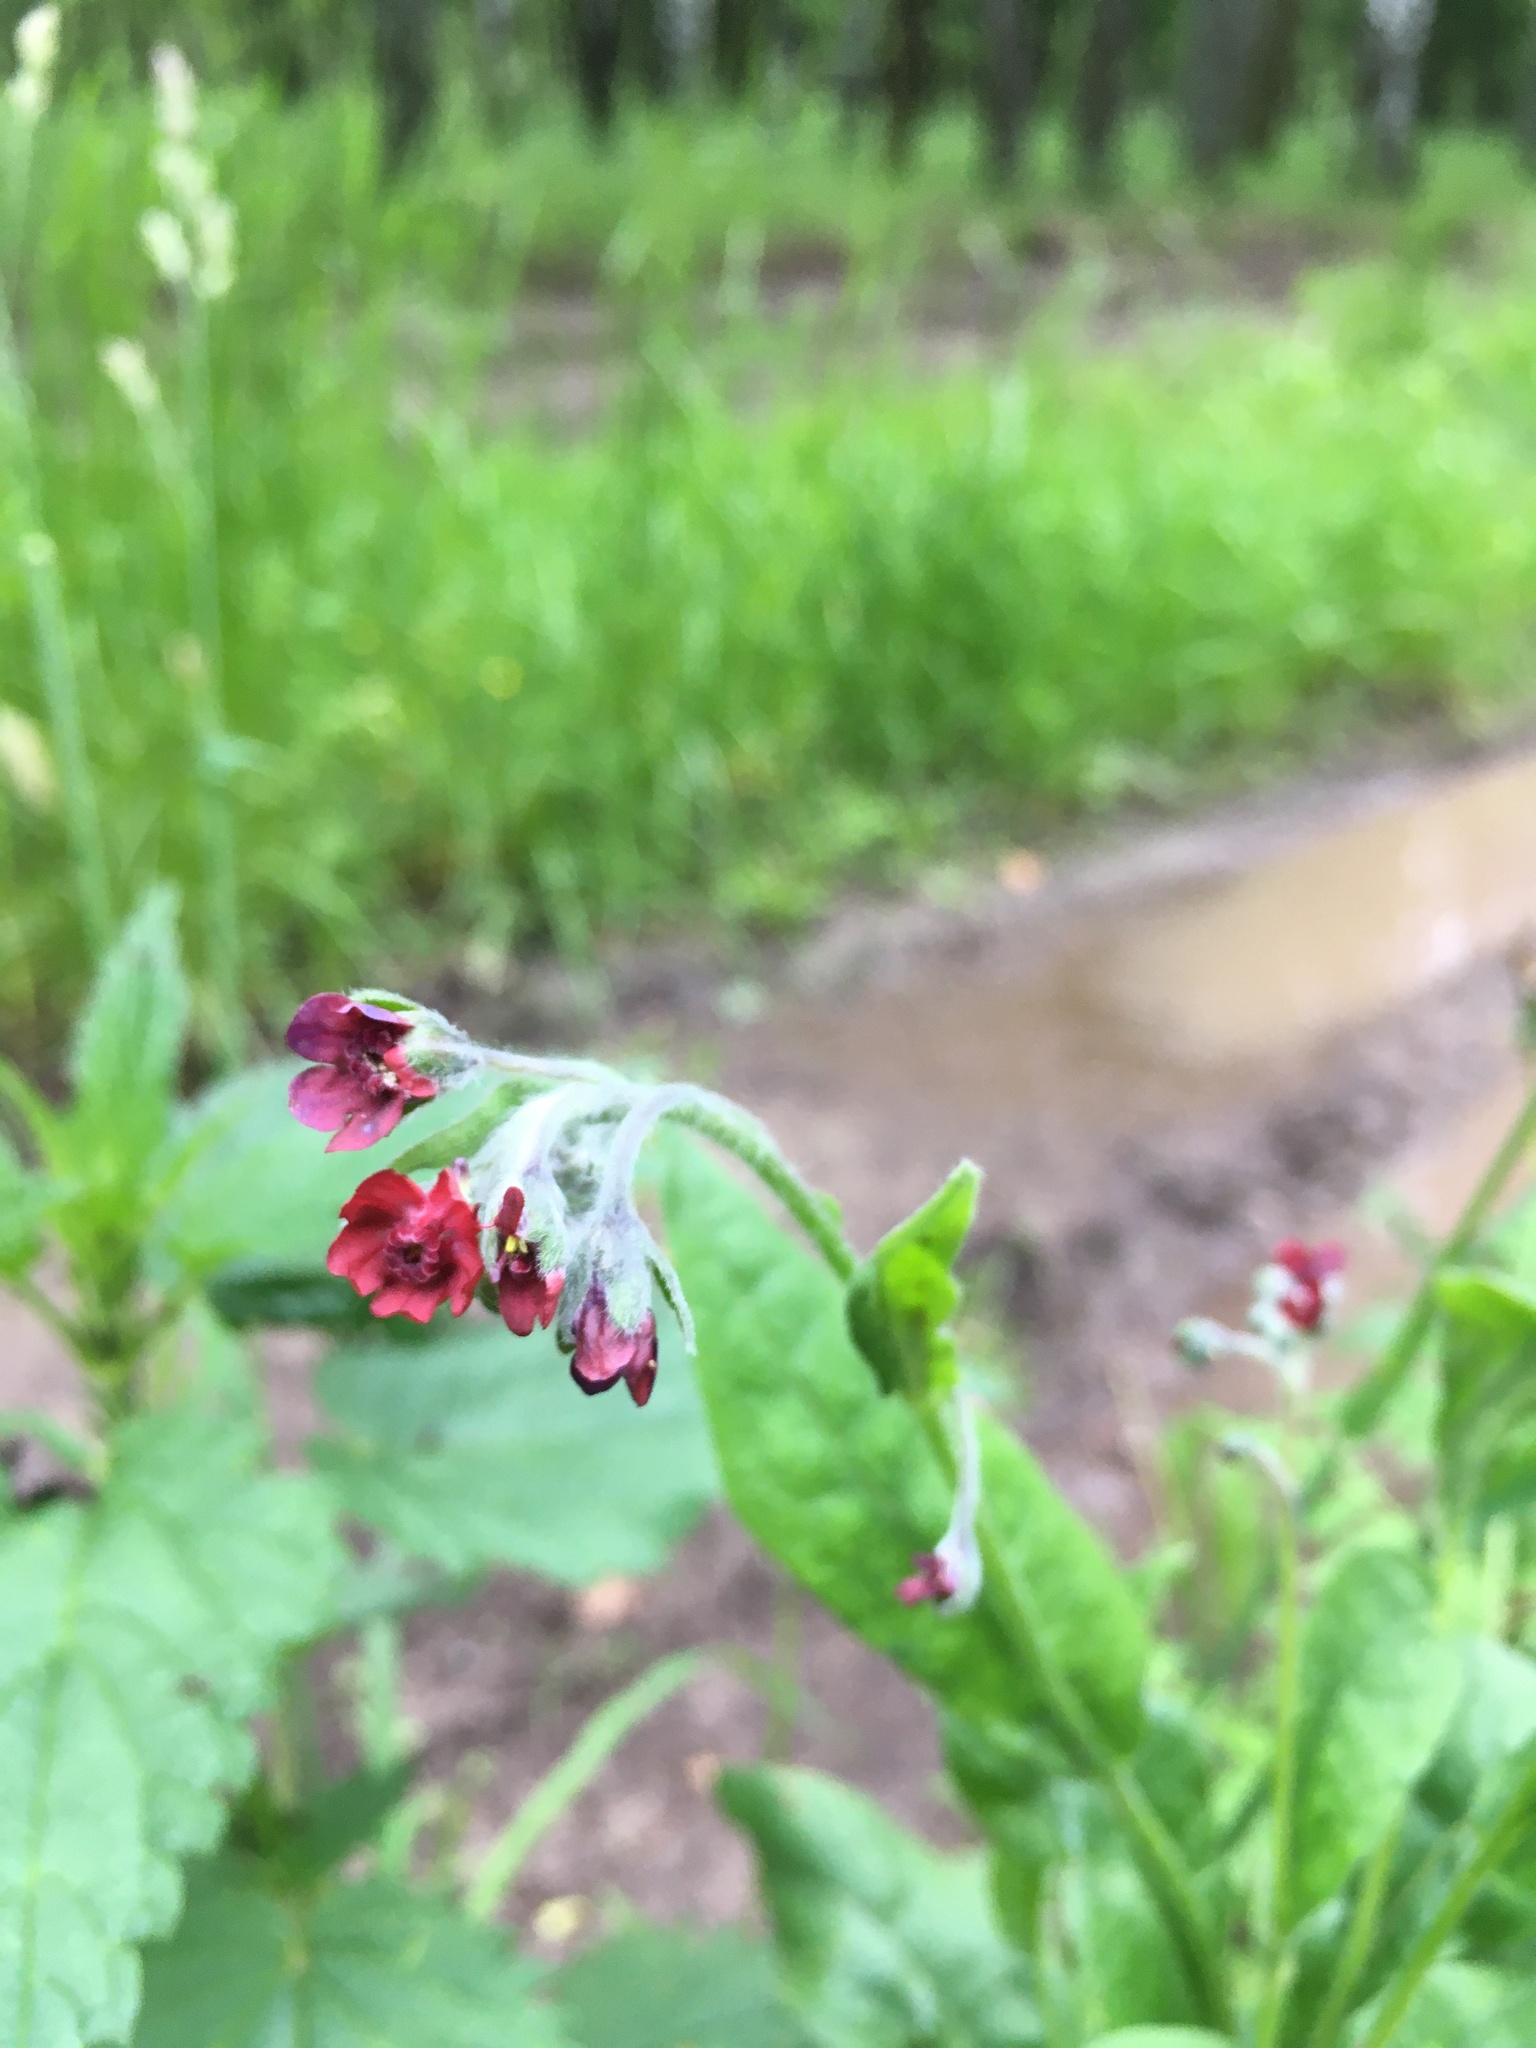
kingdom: Plantae
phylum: Tracheophyta
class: Magnoliopsida
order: Boraginales
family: Boraginaceae
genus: Cynoglossum
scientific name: Cynoglossum officinale
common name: Hound's-tongue
